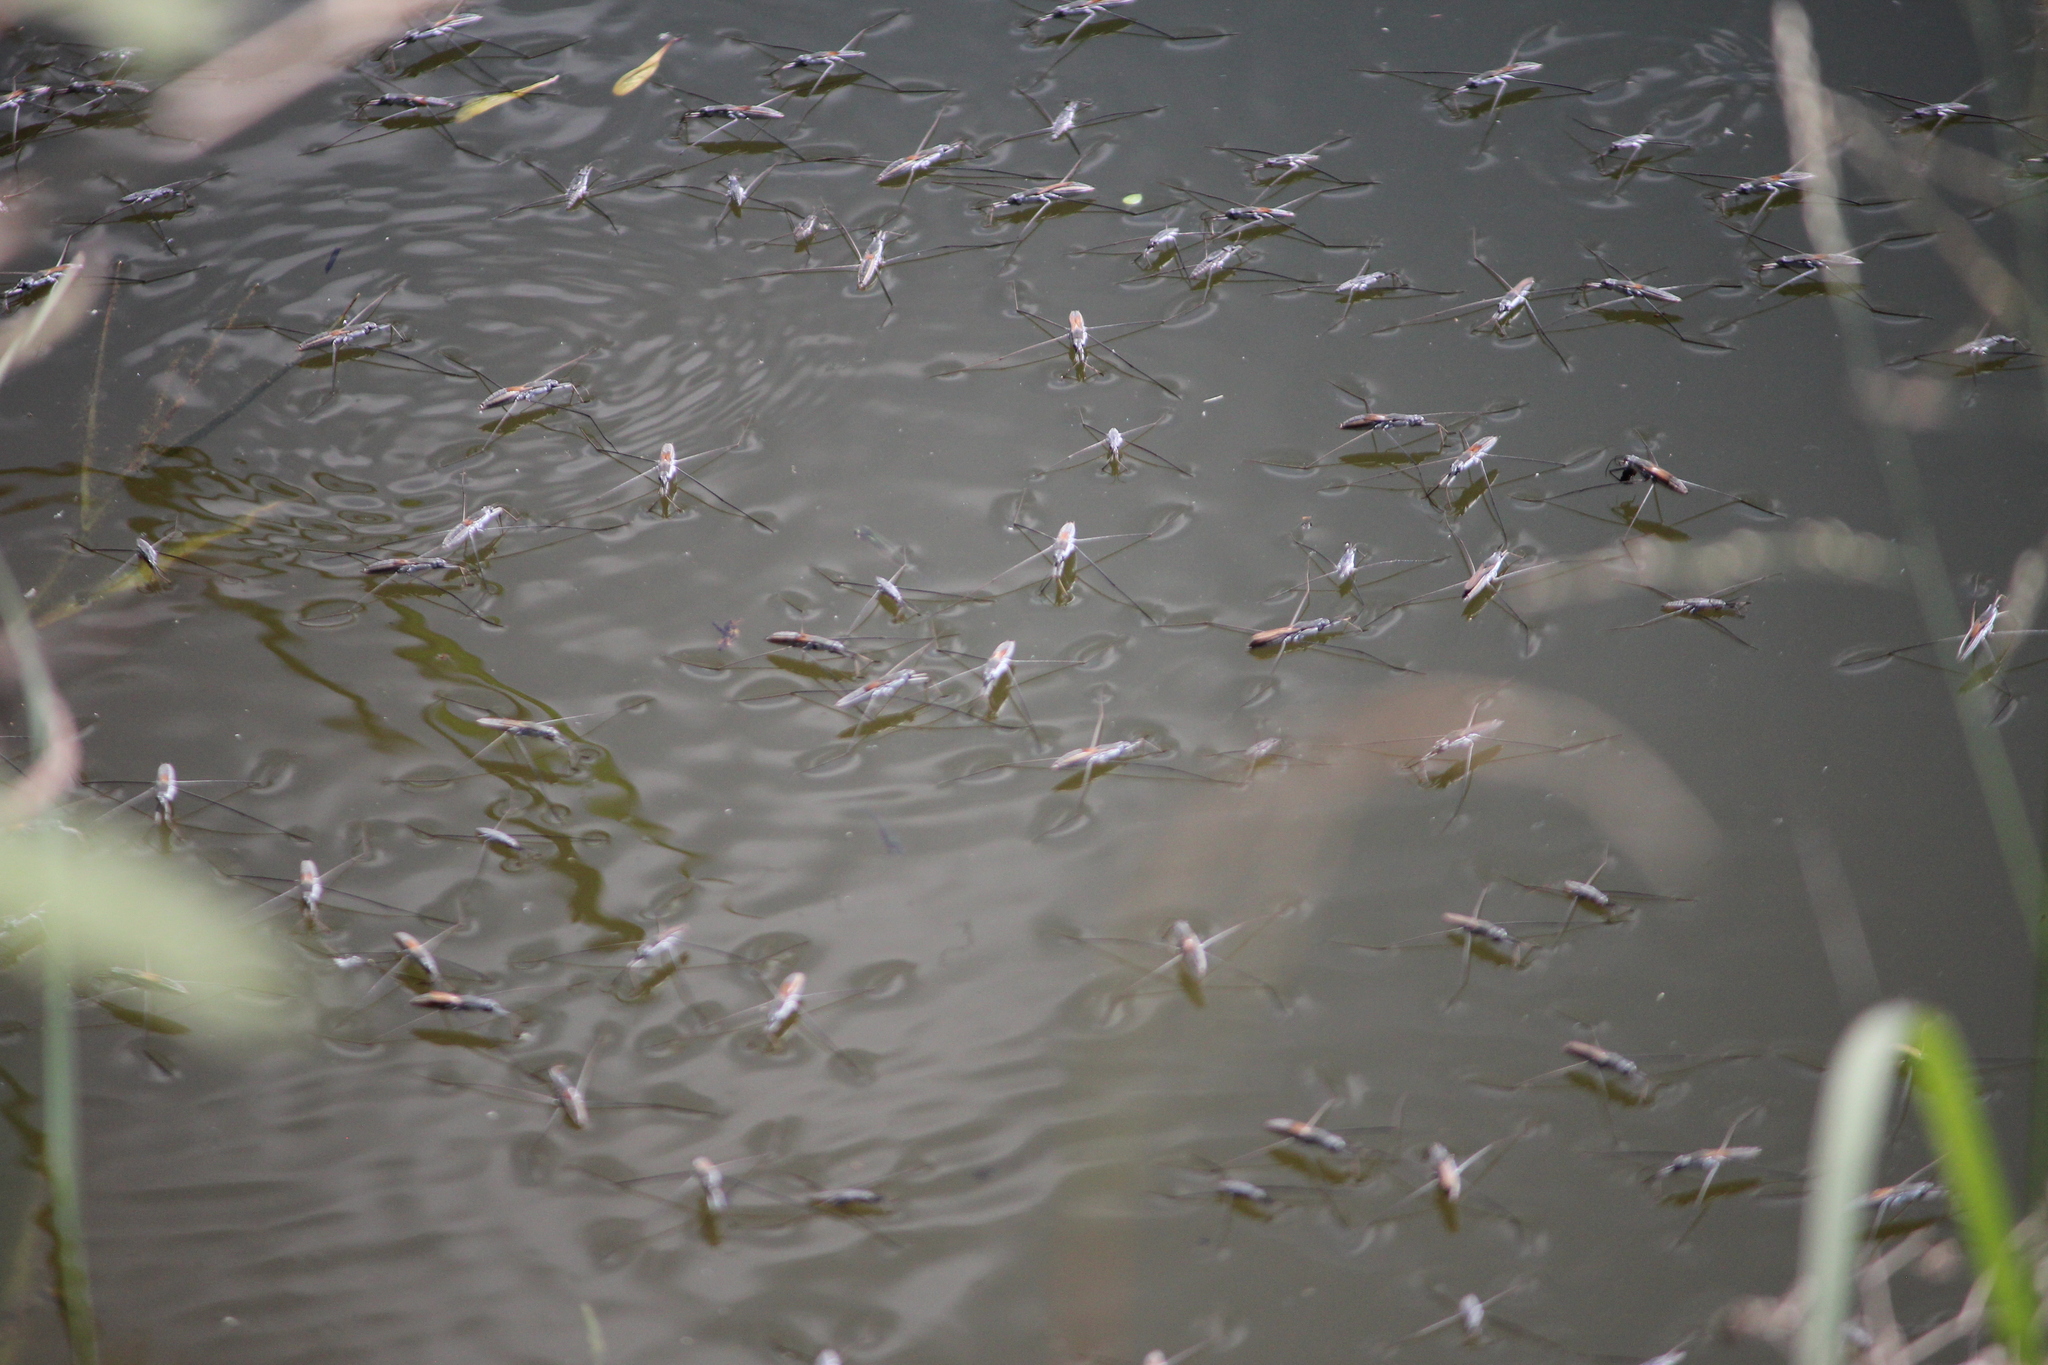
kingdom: Animalia
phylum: Arthropoda
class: Insecta
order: Hemiptera
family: Gerridae
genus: Aquarius
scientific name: Aquarius adelaidis
